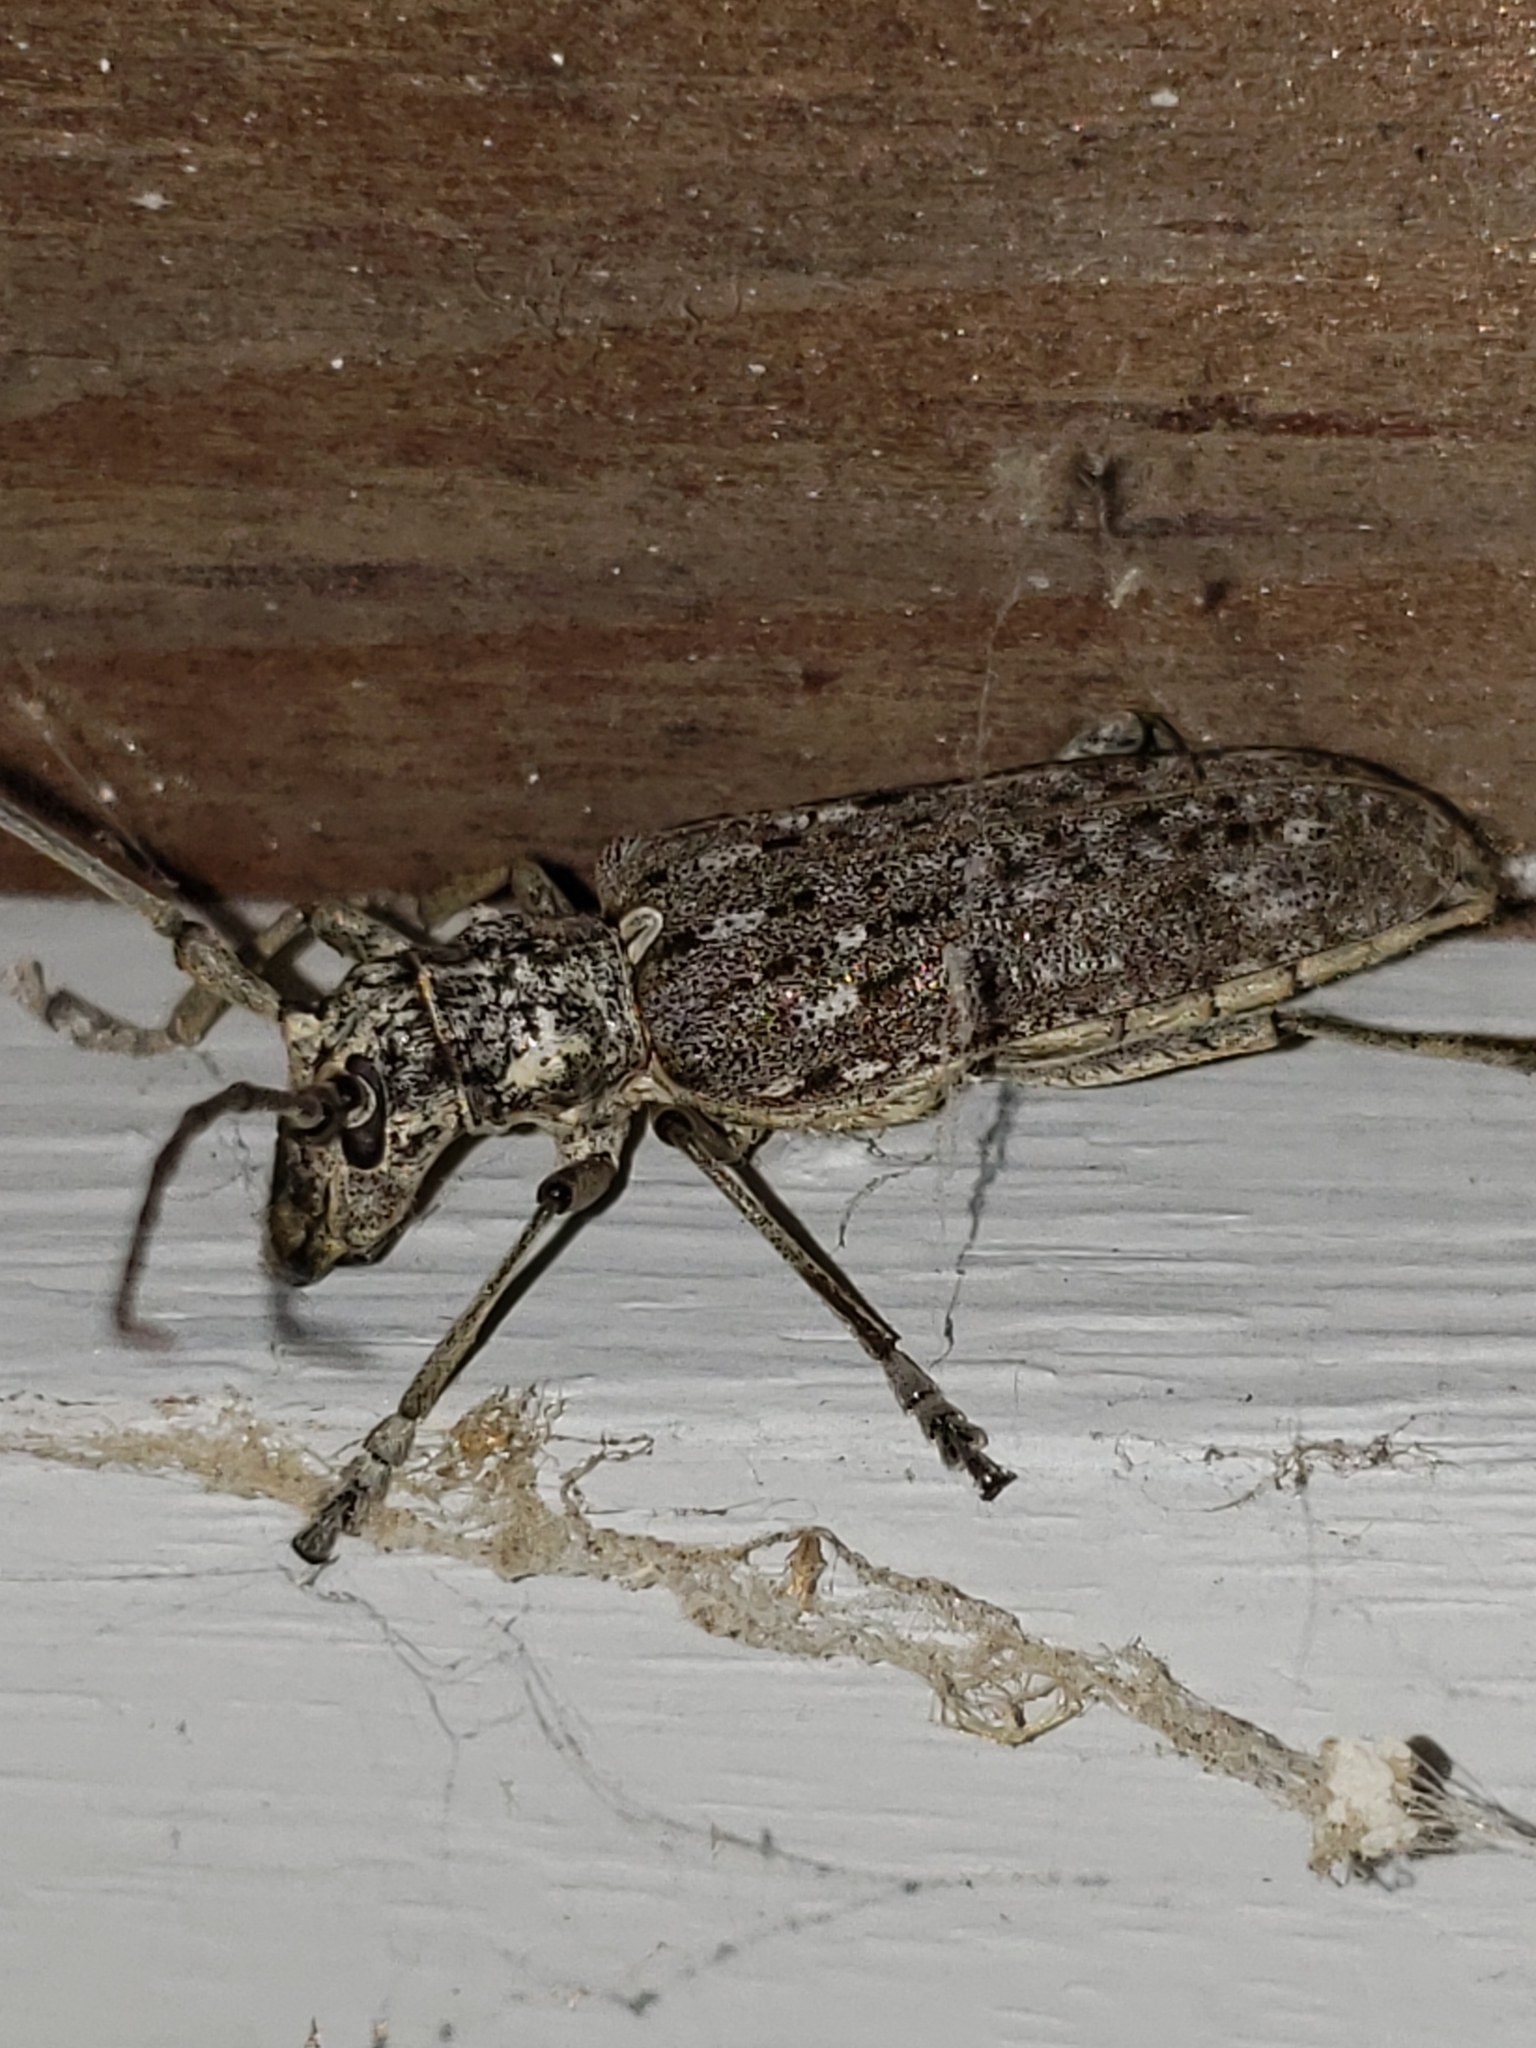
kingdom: Animalia
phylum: Arthropoda
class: Insecta
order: Coleoptera
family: Cerambycidae
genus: Monochamus
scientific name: Monochamus notatus
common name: Northeastern pine sawyer beetle
